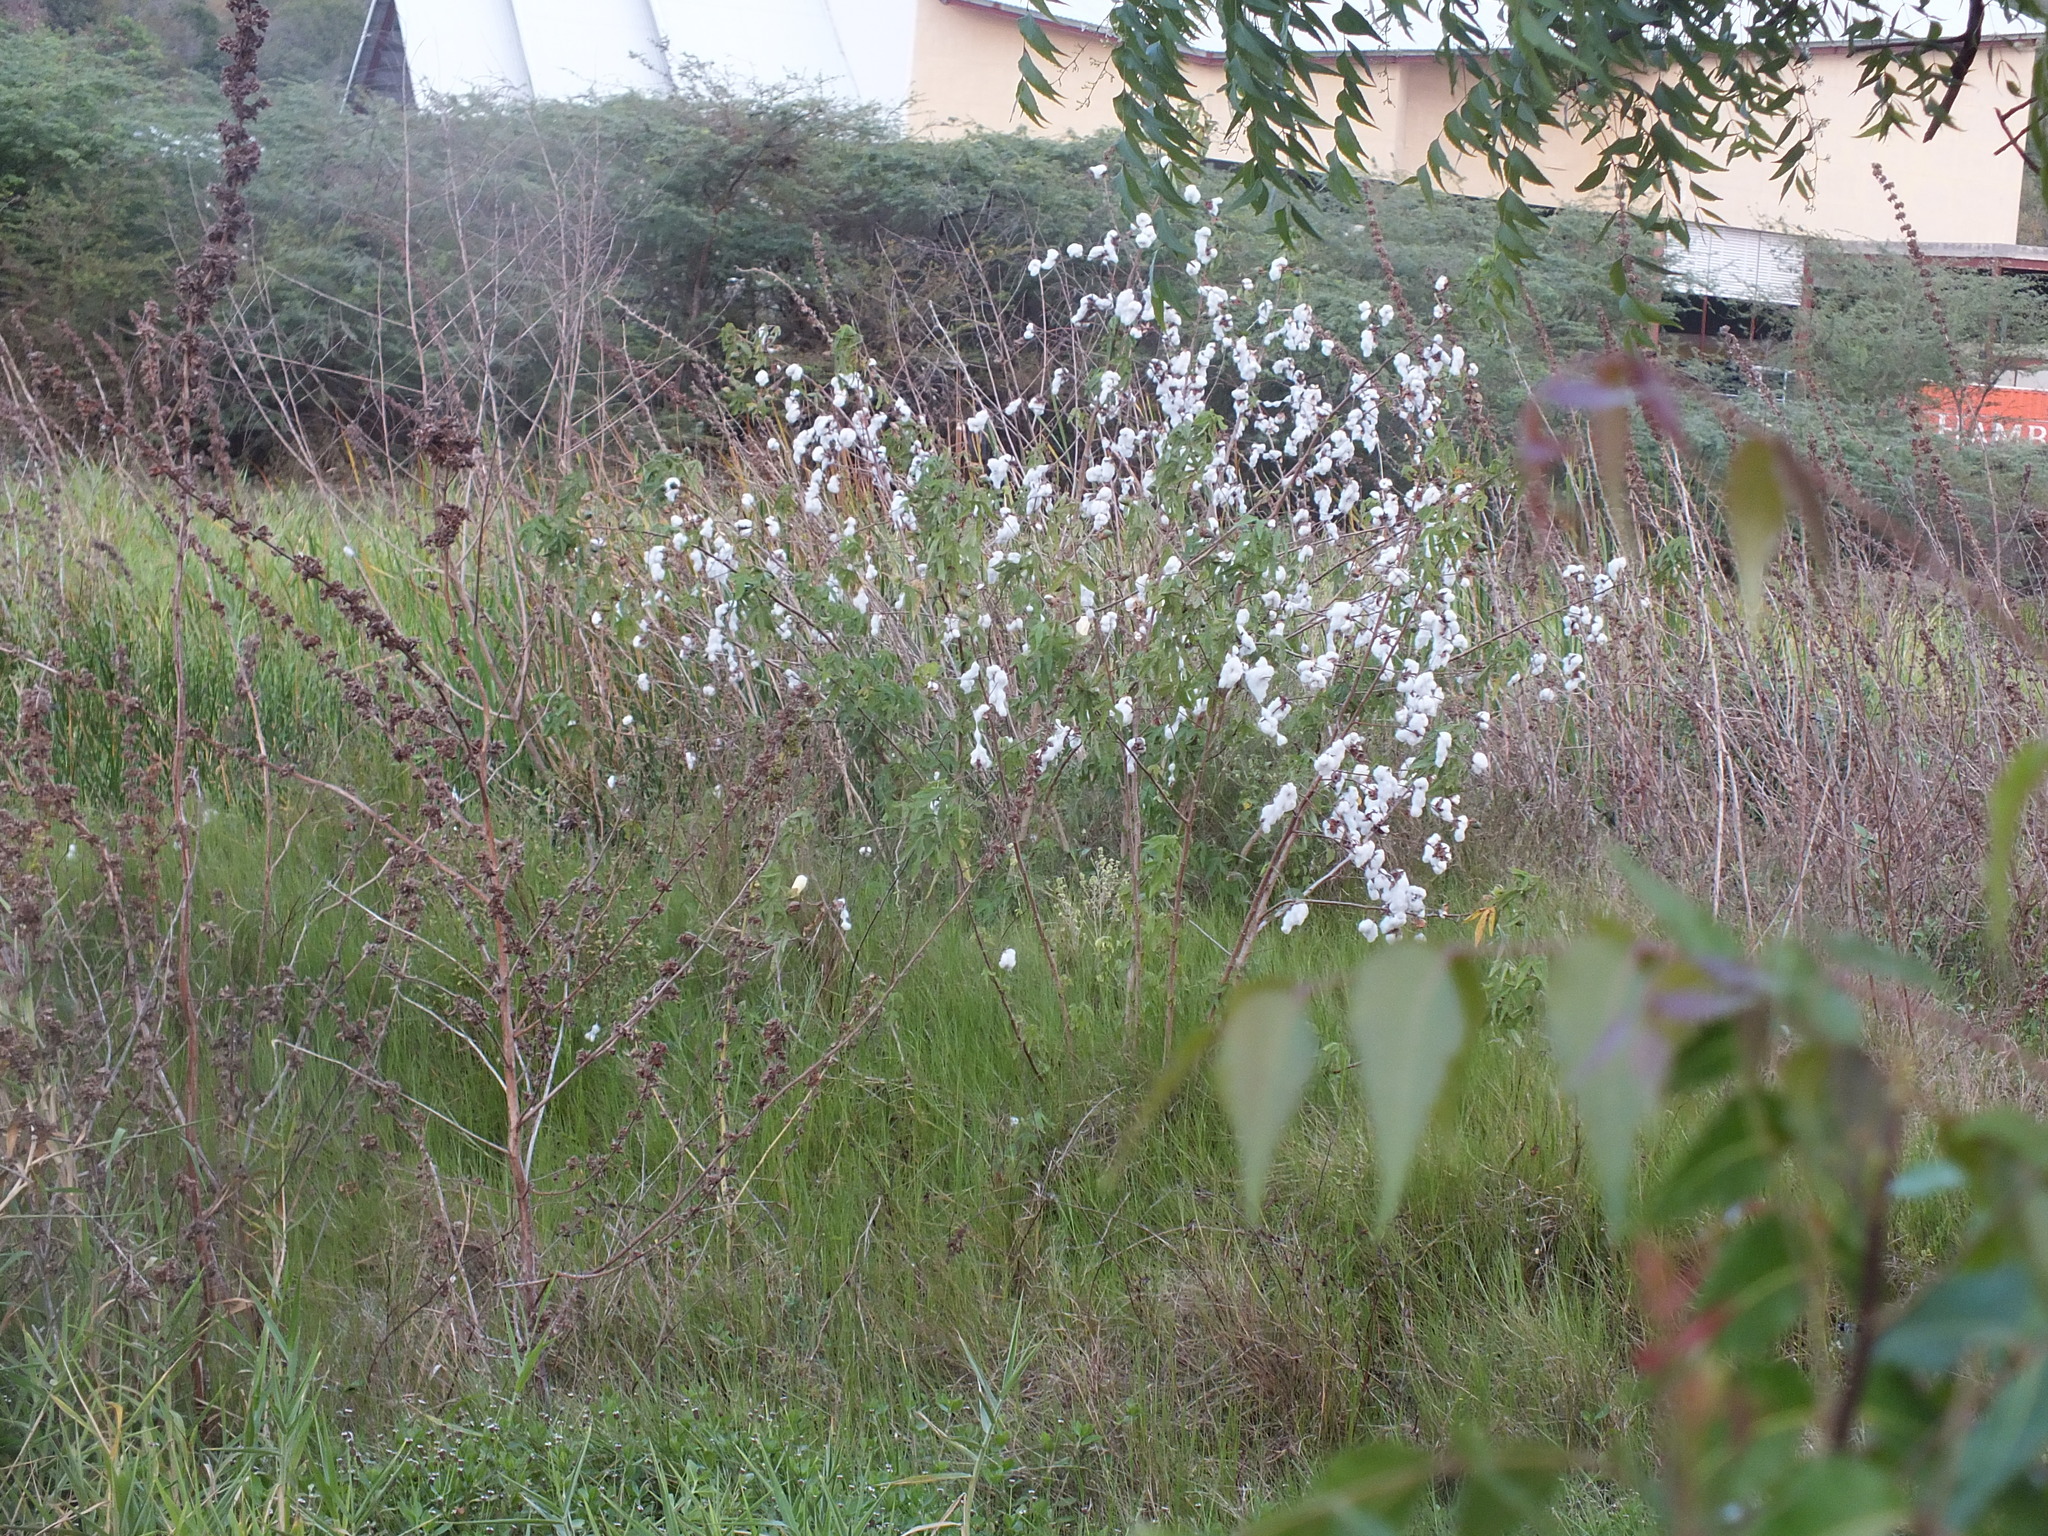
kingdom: Plantae
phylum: Tracheophyta
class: Magnoliopsida
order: Malvales
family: Malvaceae
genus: Gossypium
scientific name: Gossypium hirsutum
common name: Cotton
